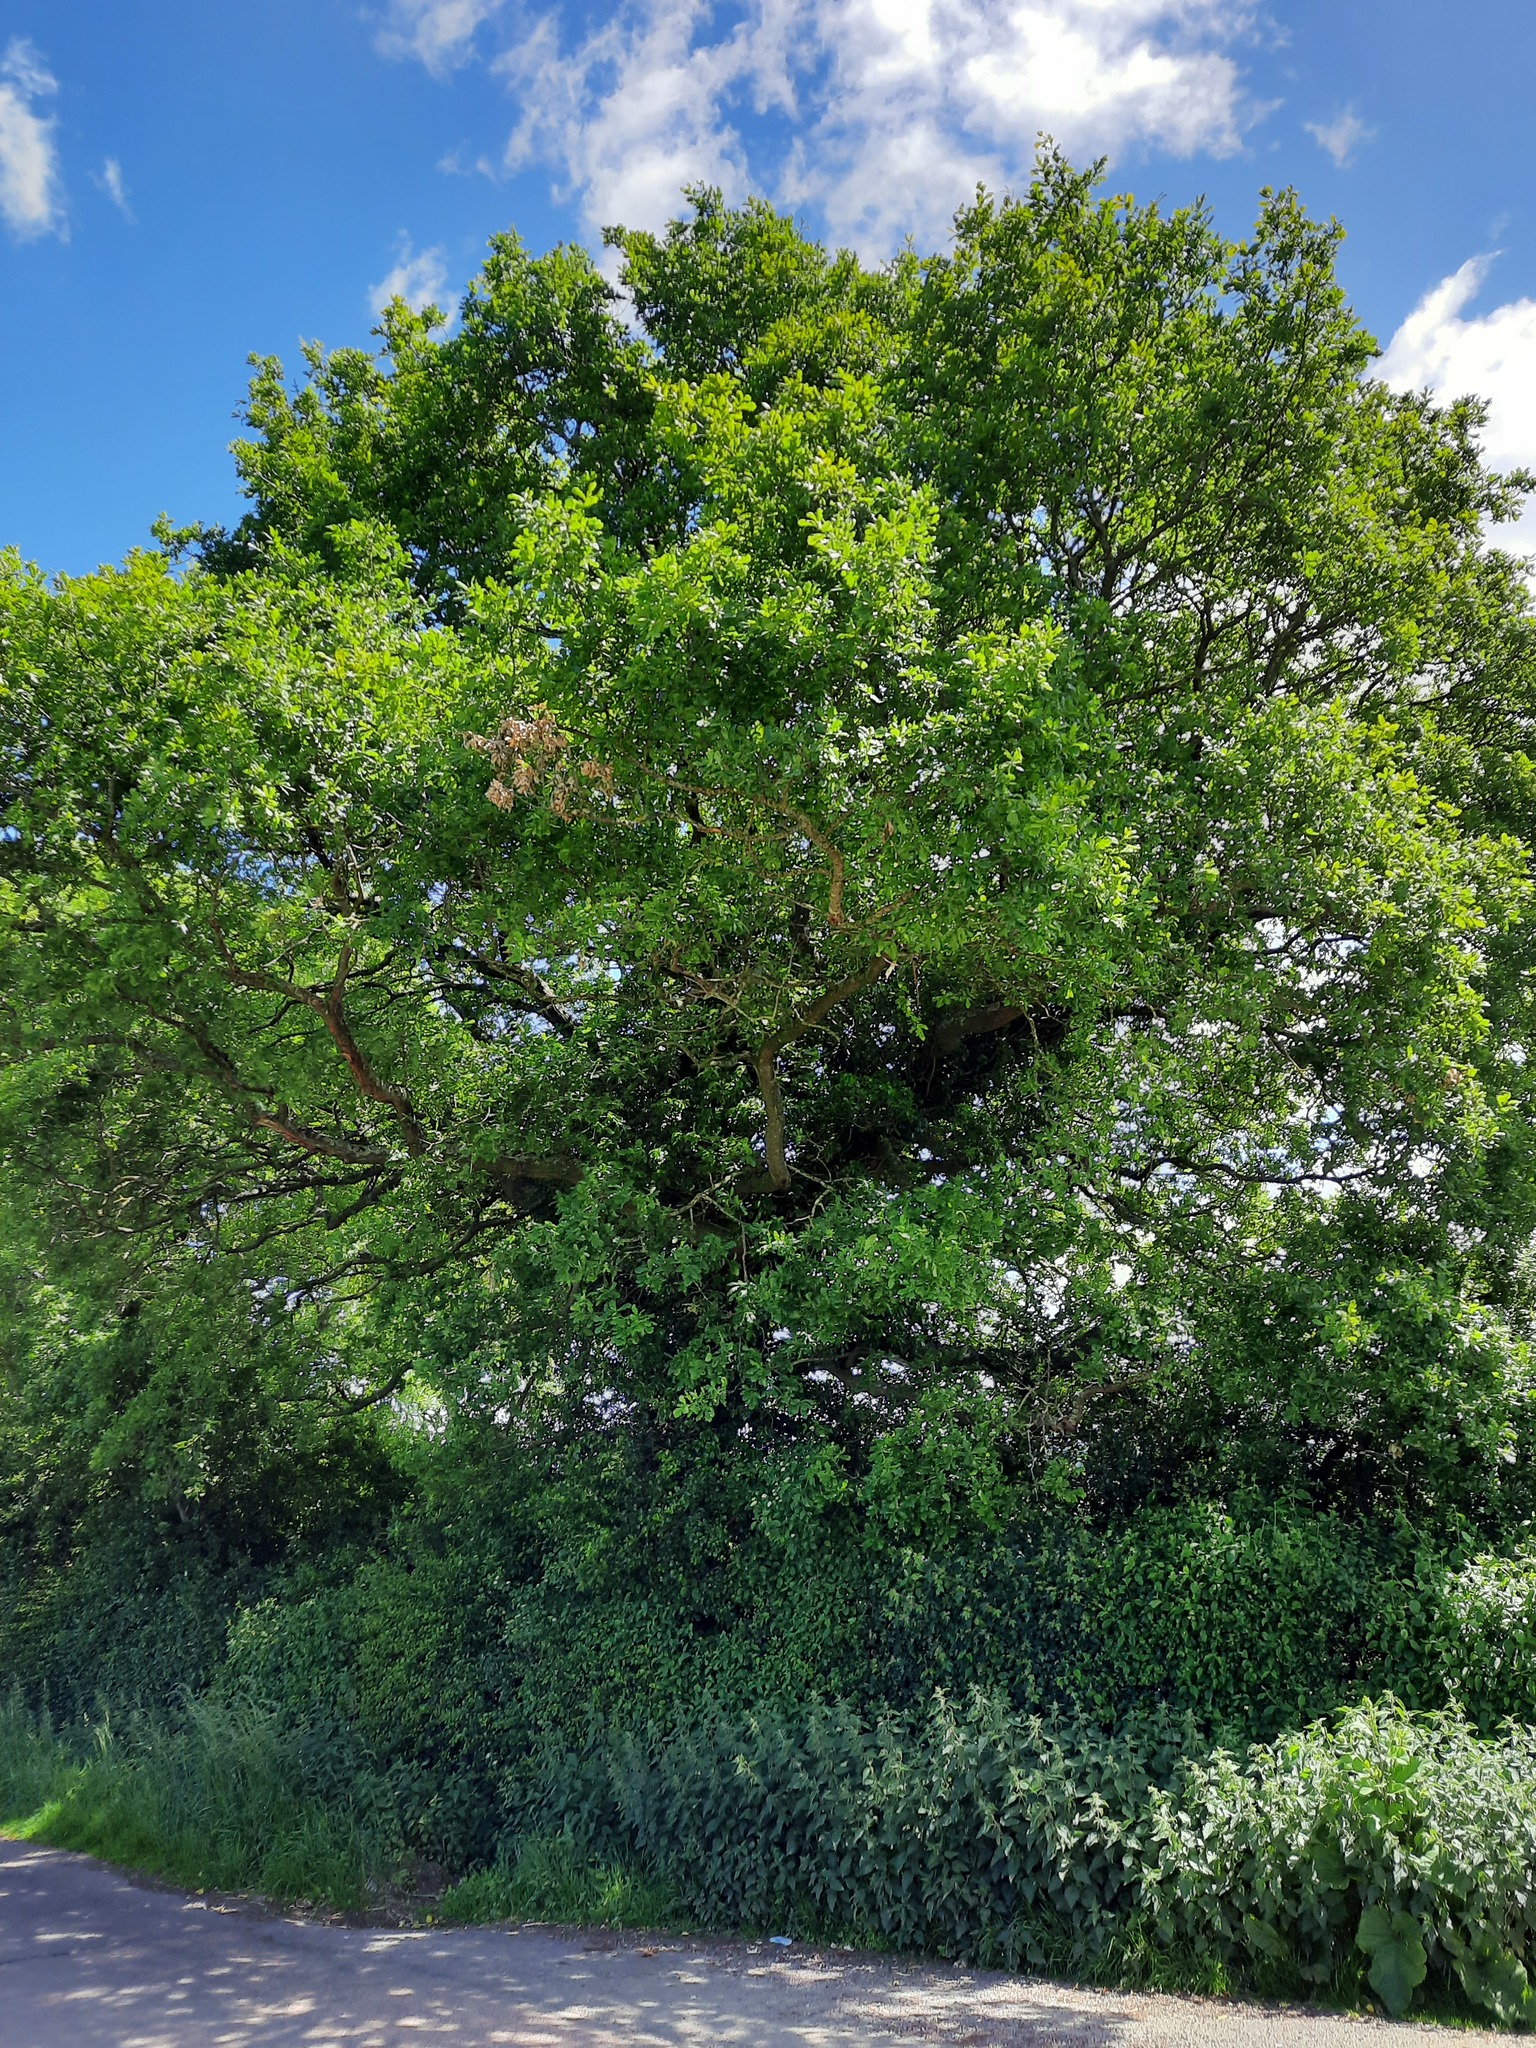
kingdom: Plantae
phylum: Tracheophyta
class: Magnoliopsida
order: Fagales
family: Fagaceae
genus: Quercus
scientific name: Quercus robur
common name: Pedunculate oak
